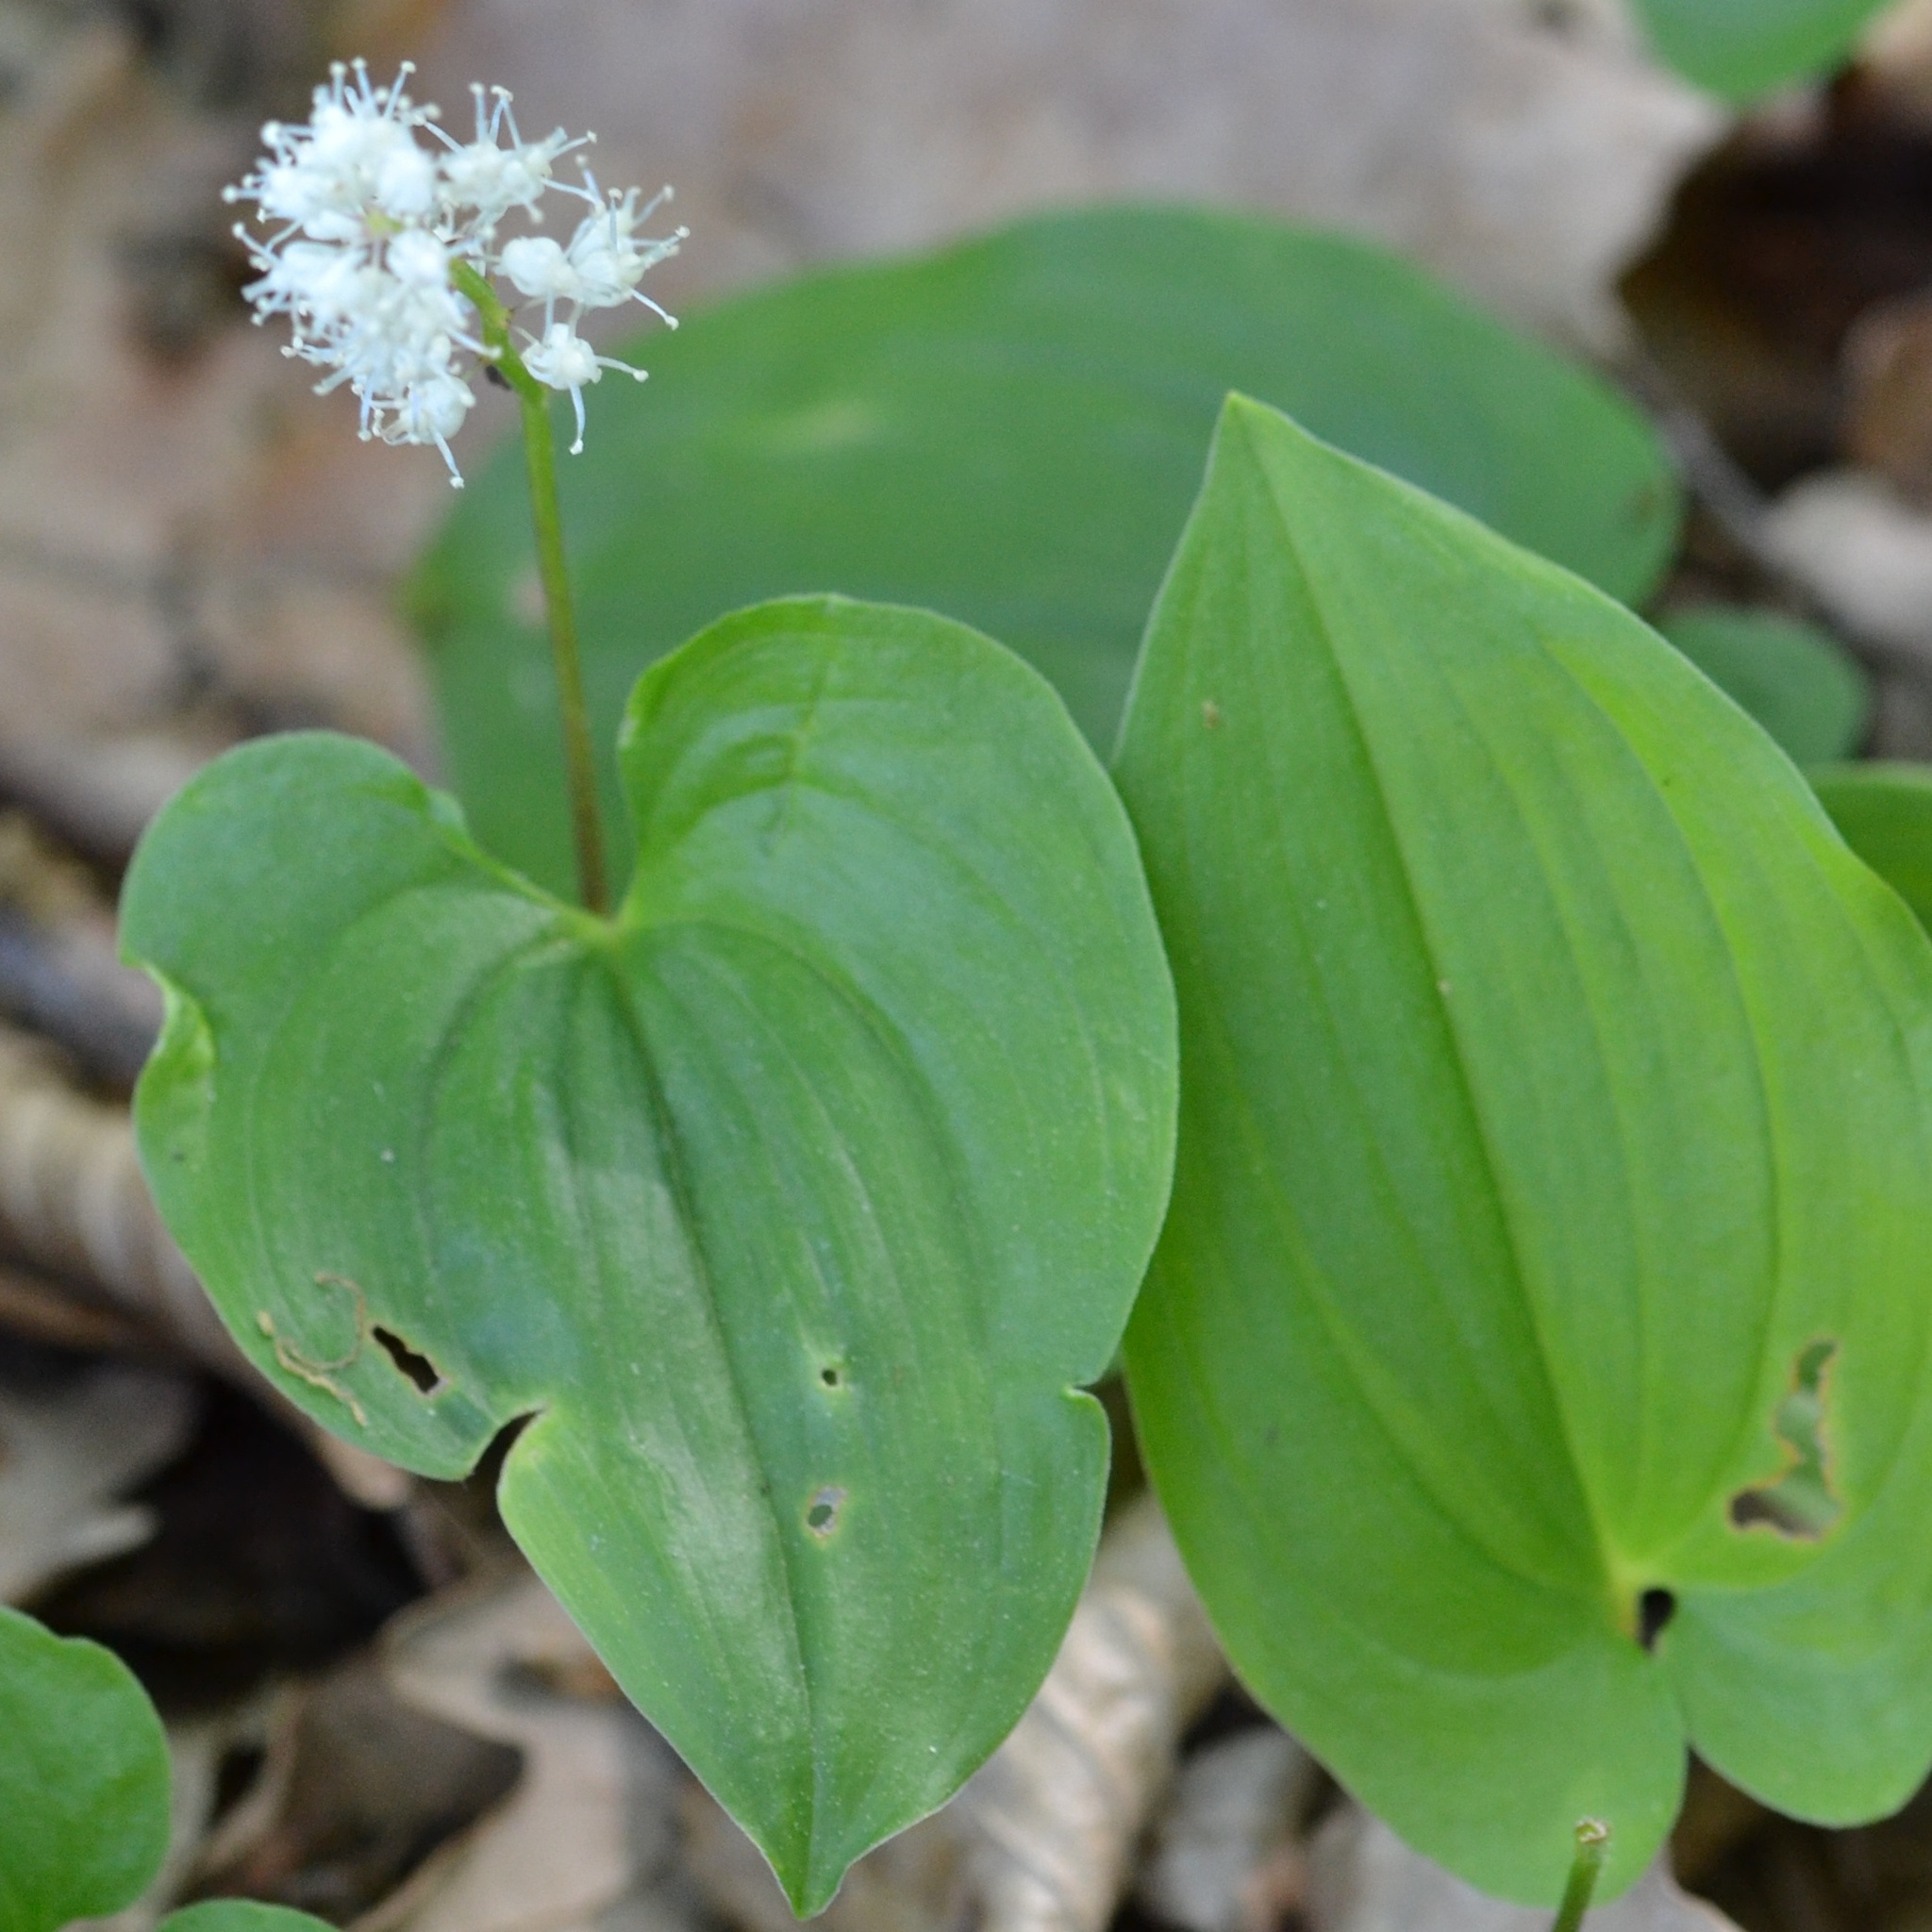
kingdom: Plantae
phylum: Tracheophyta
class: Liliopsida
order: Asparagales
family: Asparagaceae
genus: Maianthemum
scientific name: Maianthemum bifolium
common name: May lily
